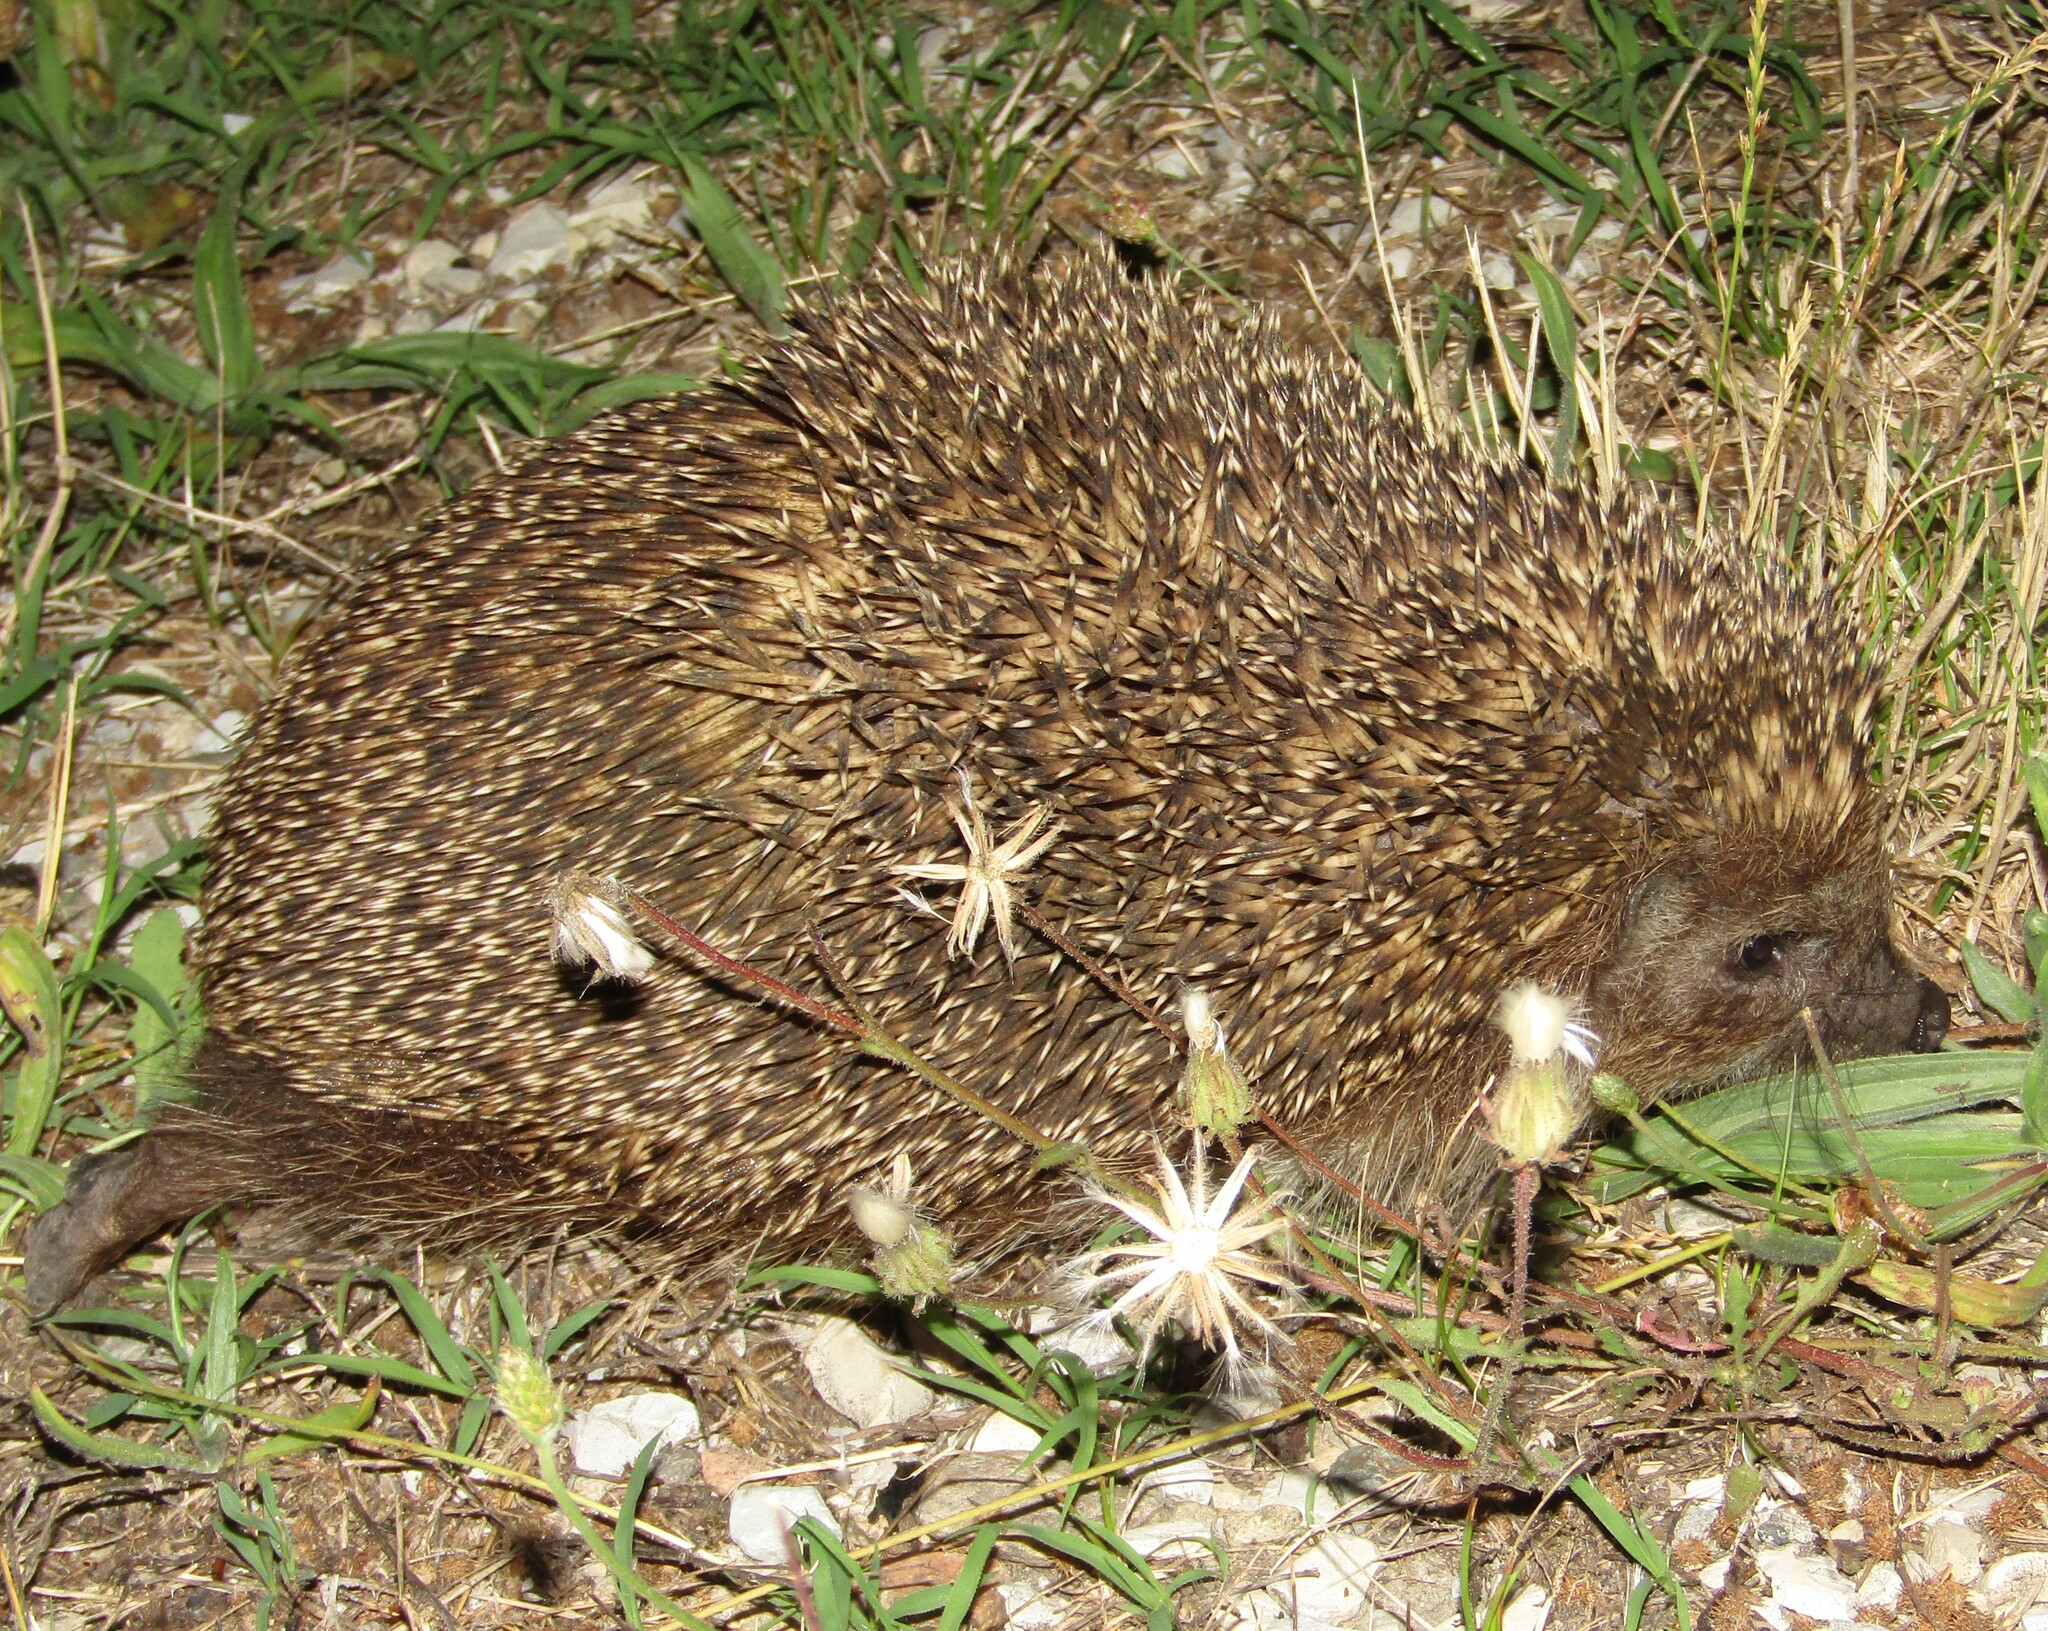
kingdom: Animalia
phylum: Chordata
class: Mammalia
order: Erinaceomorpha
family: Erinaceidae
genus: Erinaceus
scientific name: Erinaceus roumanicus
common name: Northern white-breasted hedgehog
